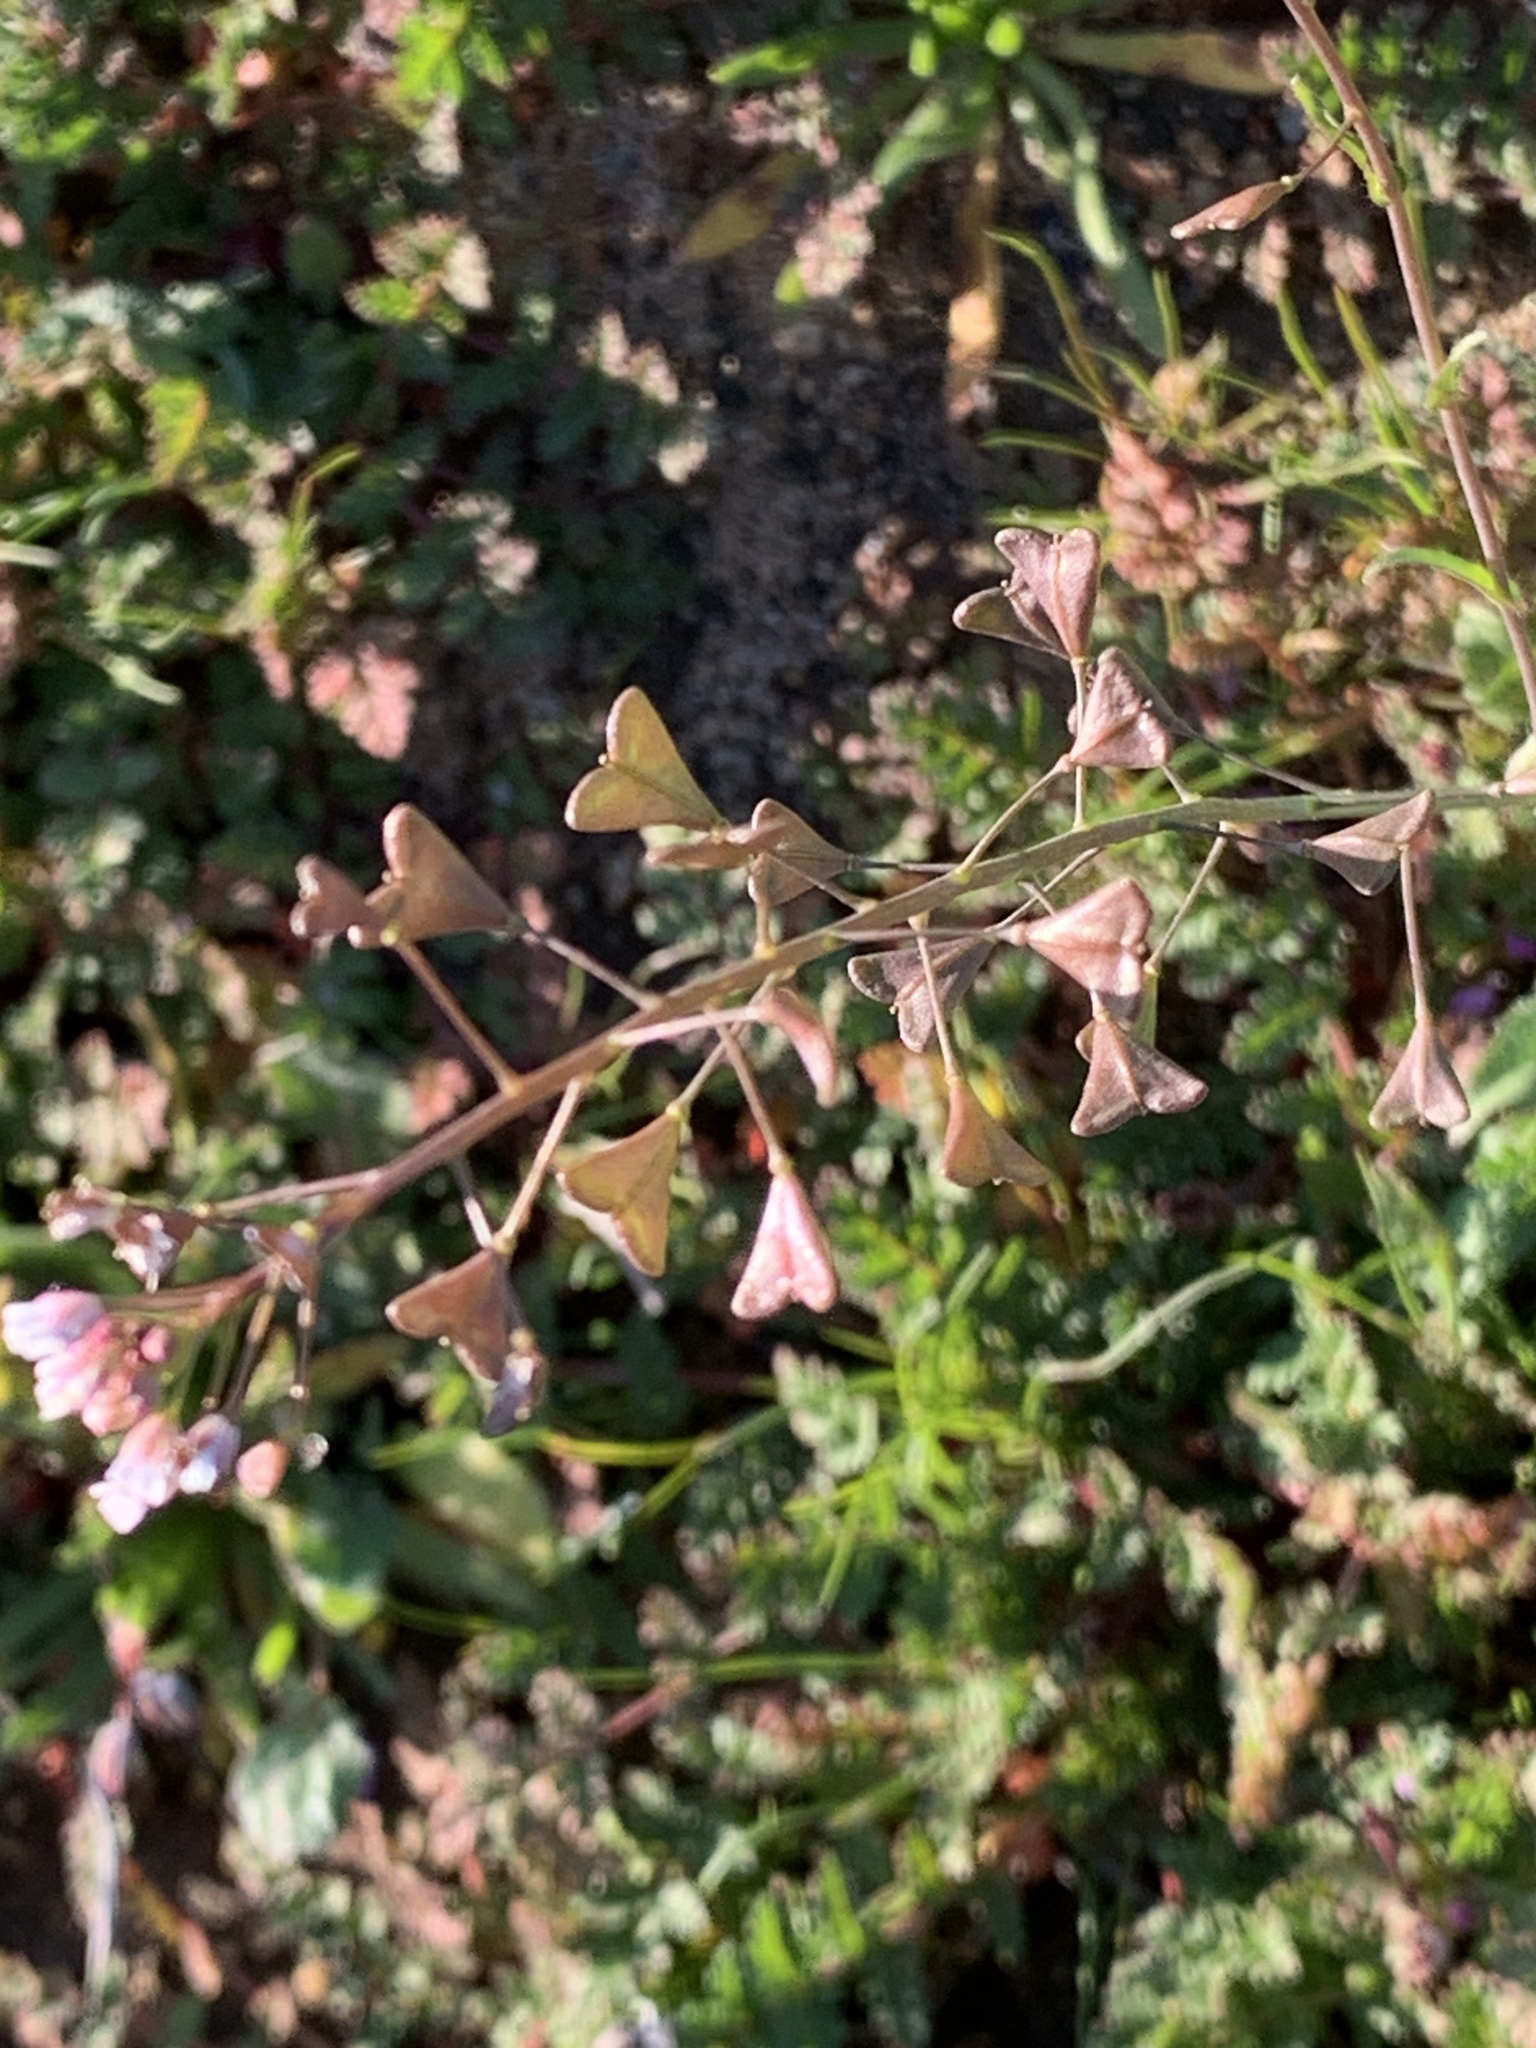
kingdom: Plantae
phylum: Tracheophyta
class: Magnoliopsida
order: Brassicales
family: Brassicaceae
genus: Capsella
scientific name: Capsella bursa-pastoris
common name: Shepherd's purse
